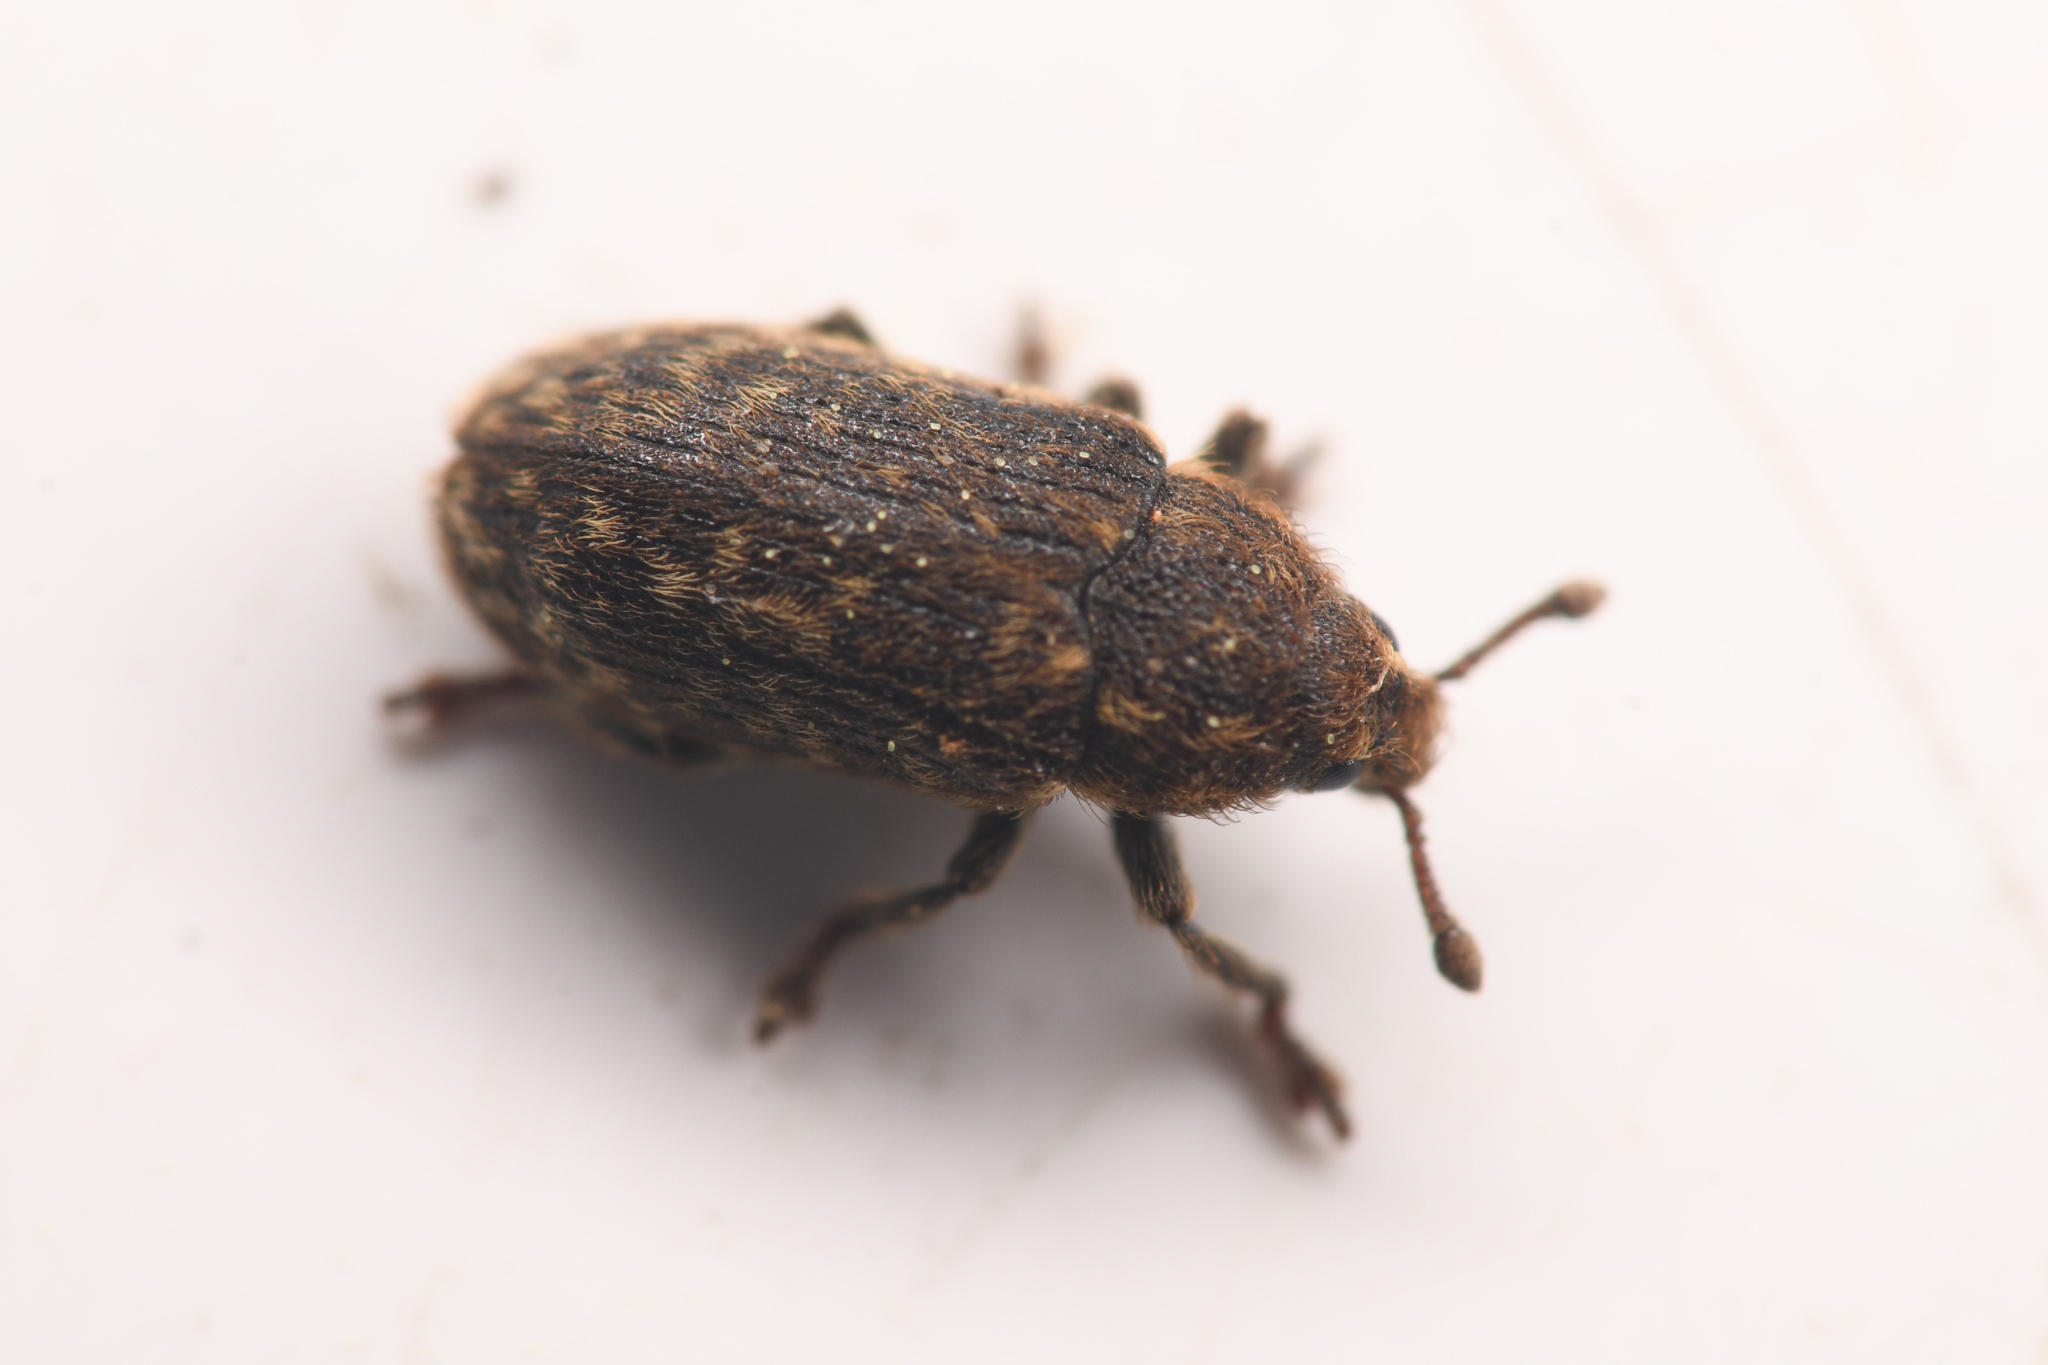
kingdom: Animalia
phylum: Arthropoda
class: Insecta
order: Coleoptera
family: Curculionidae
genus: Rhinocyllus
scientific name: Rhinocyllus conicus
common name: Weevil
